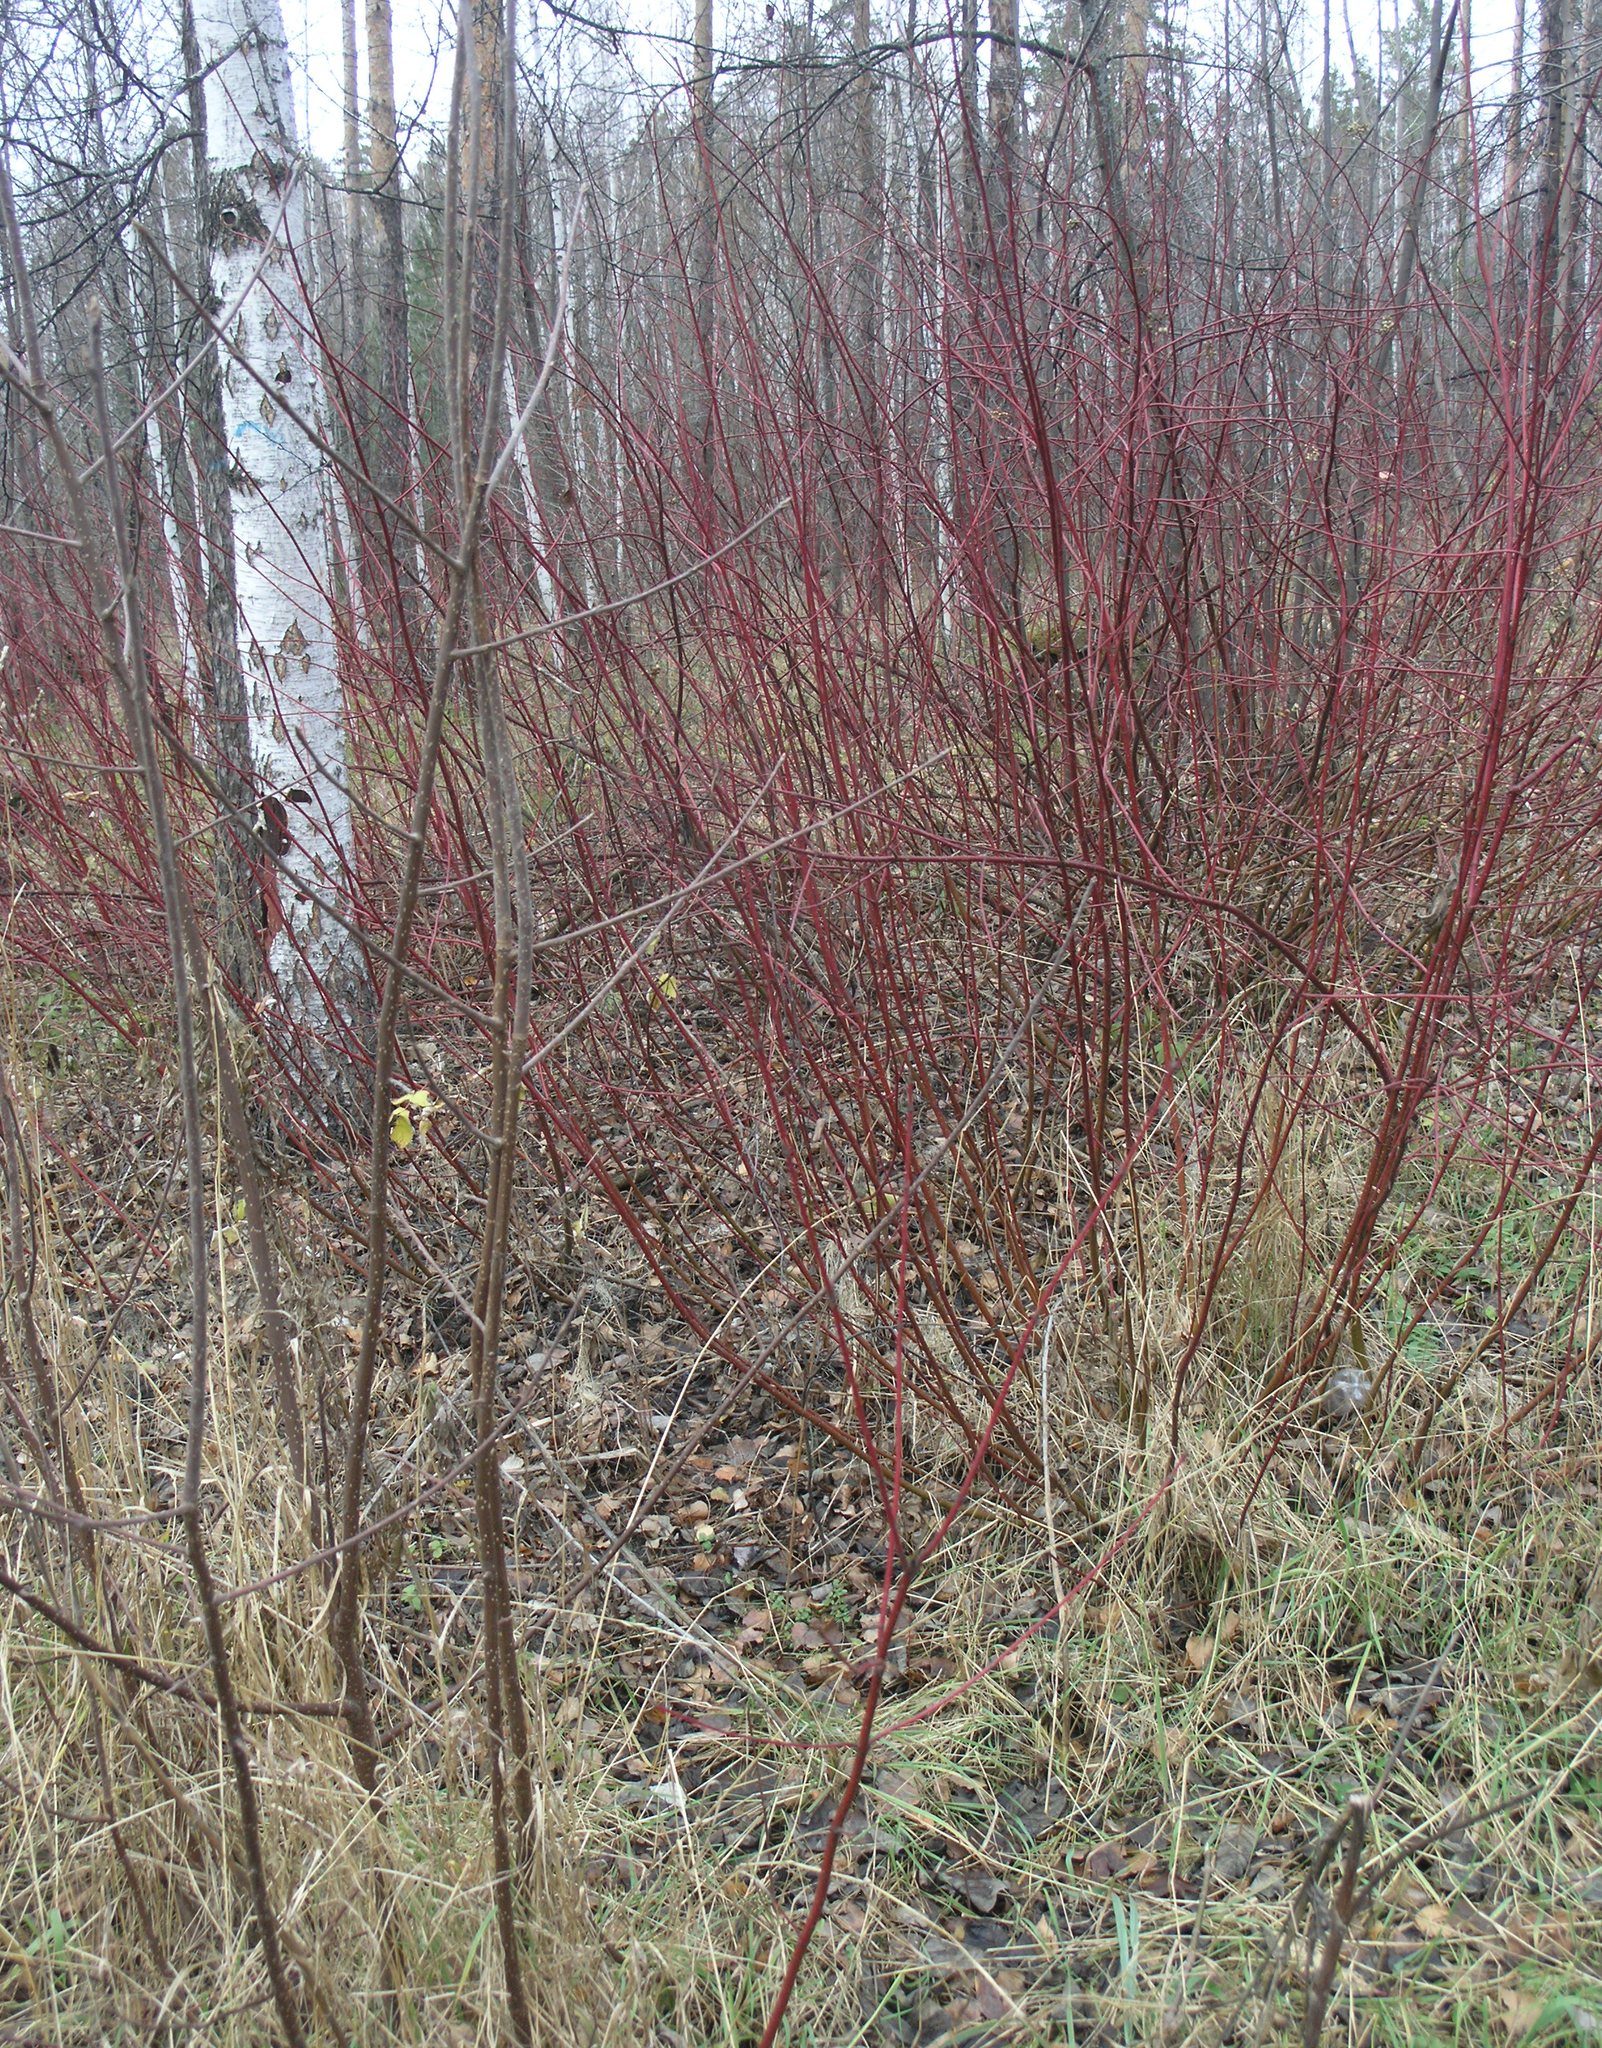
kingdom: Plantae
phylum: Tracheophyta
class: Magnoliopsida
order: Cornales
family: Cornaceae
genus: Cornus
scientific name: Cornus alba
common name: White dogwood
